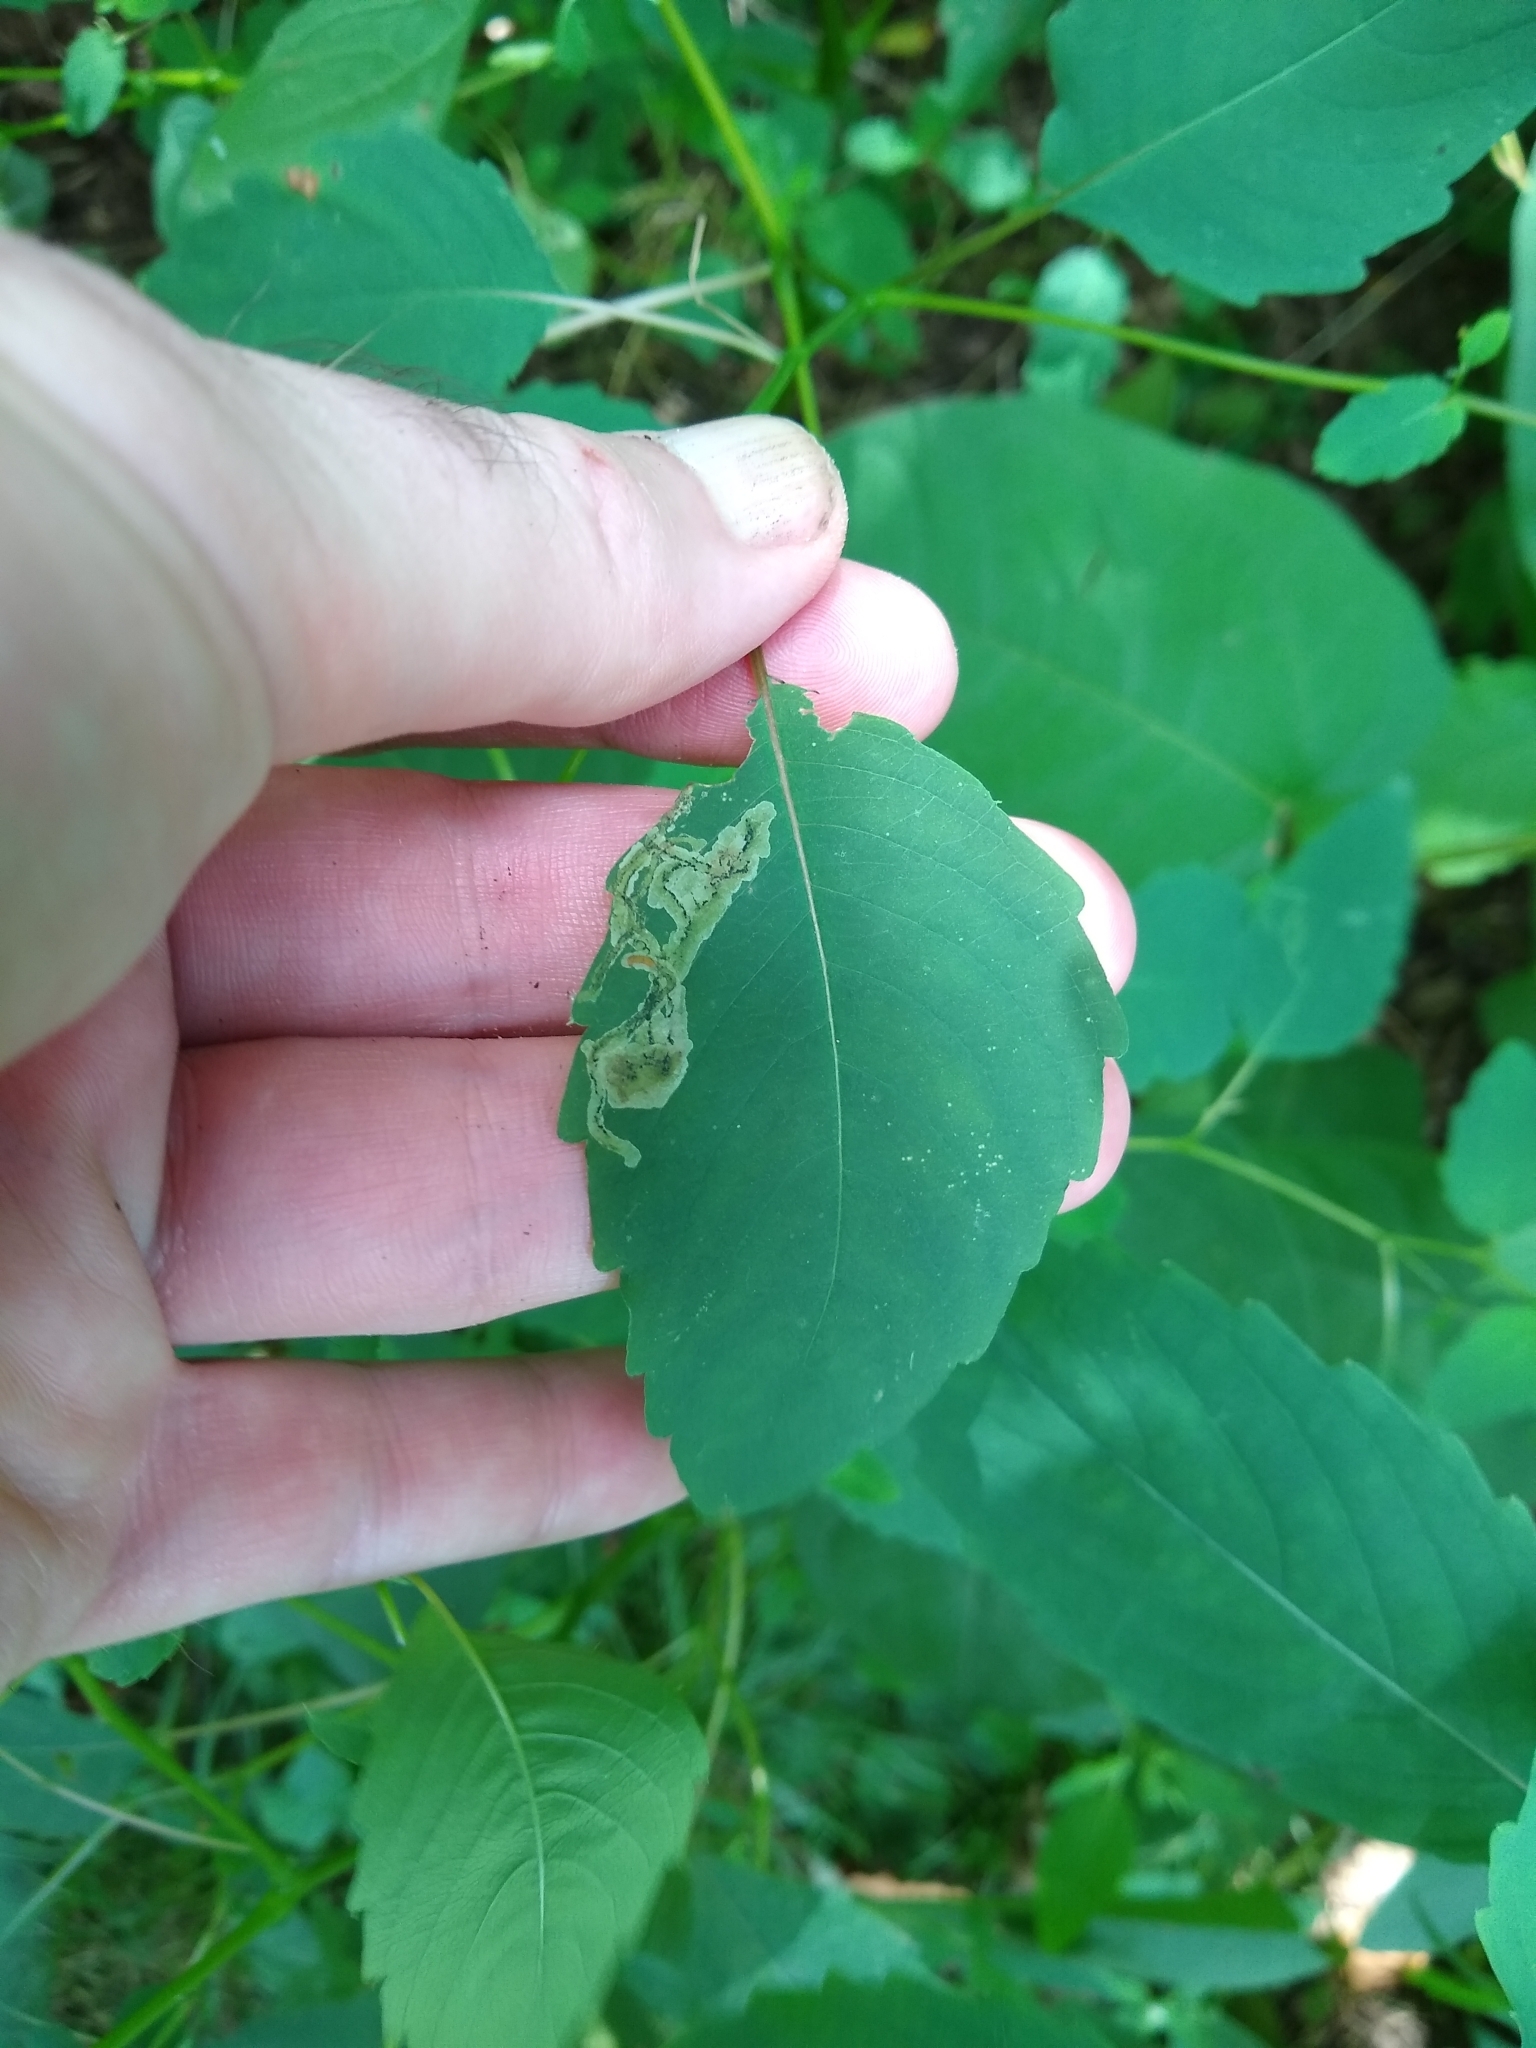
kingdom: Animalia
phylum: Arthropoda
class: Insecta
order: Diptera
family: Agromyzidae
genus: Phytoliriomyza
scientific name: Phytoliriomyza melampyga
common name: Jewelweed leaf-miner fly
